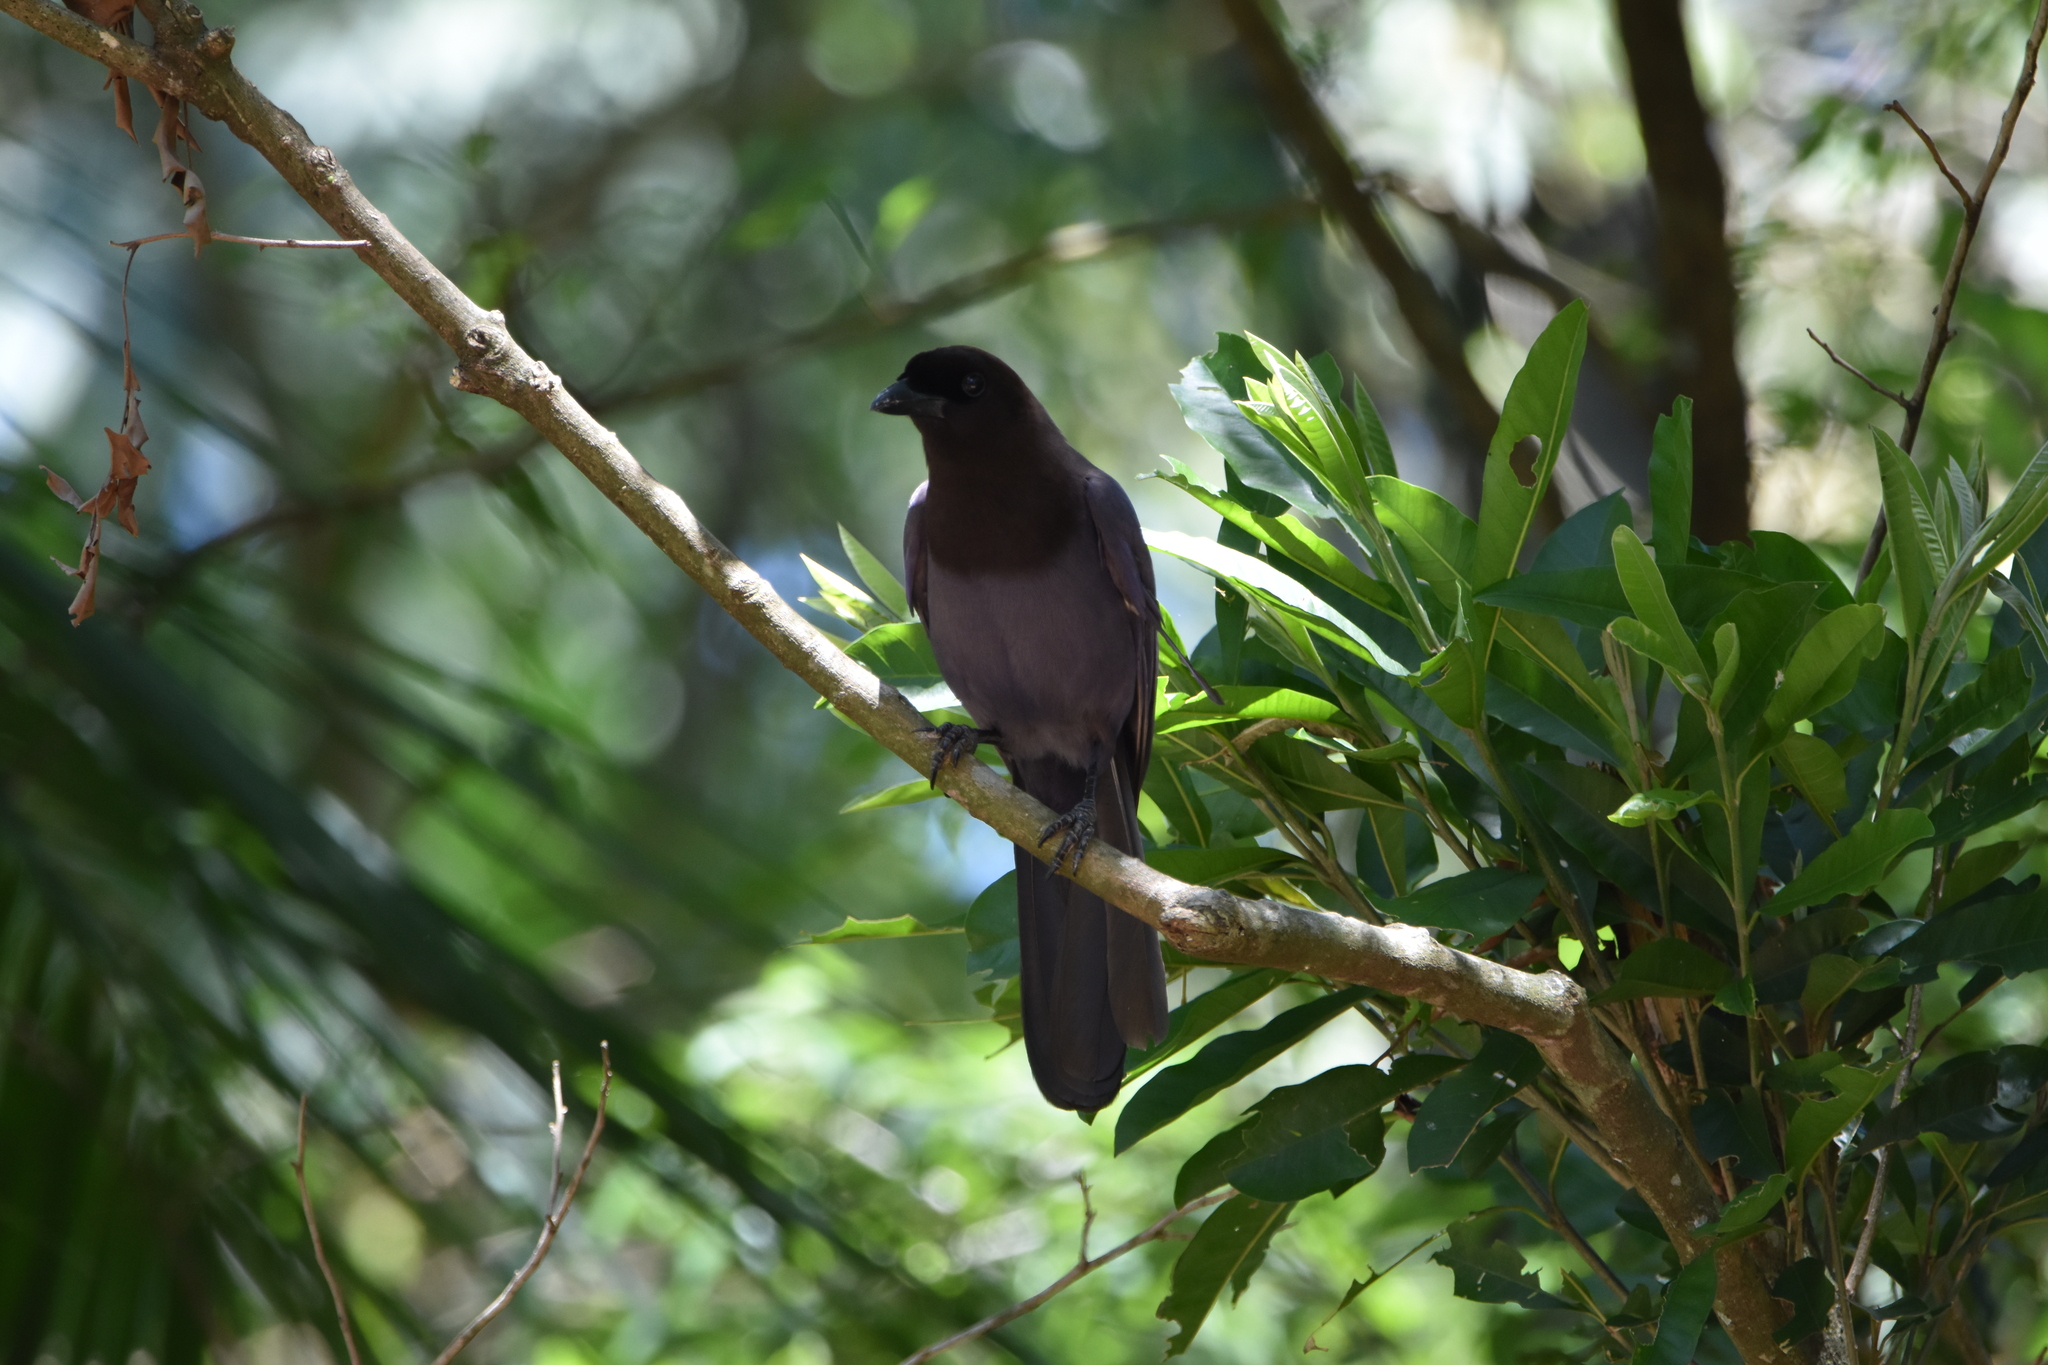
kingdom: Animalia
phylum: Chordata
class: Aves
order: Passeriformes
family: Corvidae
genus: Cyanocorax
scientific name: Cyanocorax cyanomelas
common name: Purplish jay
